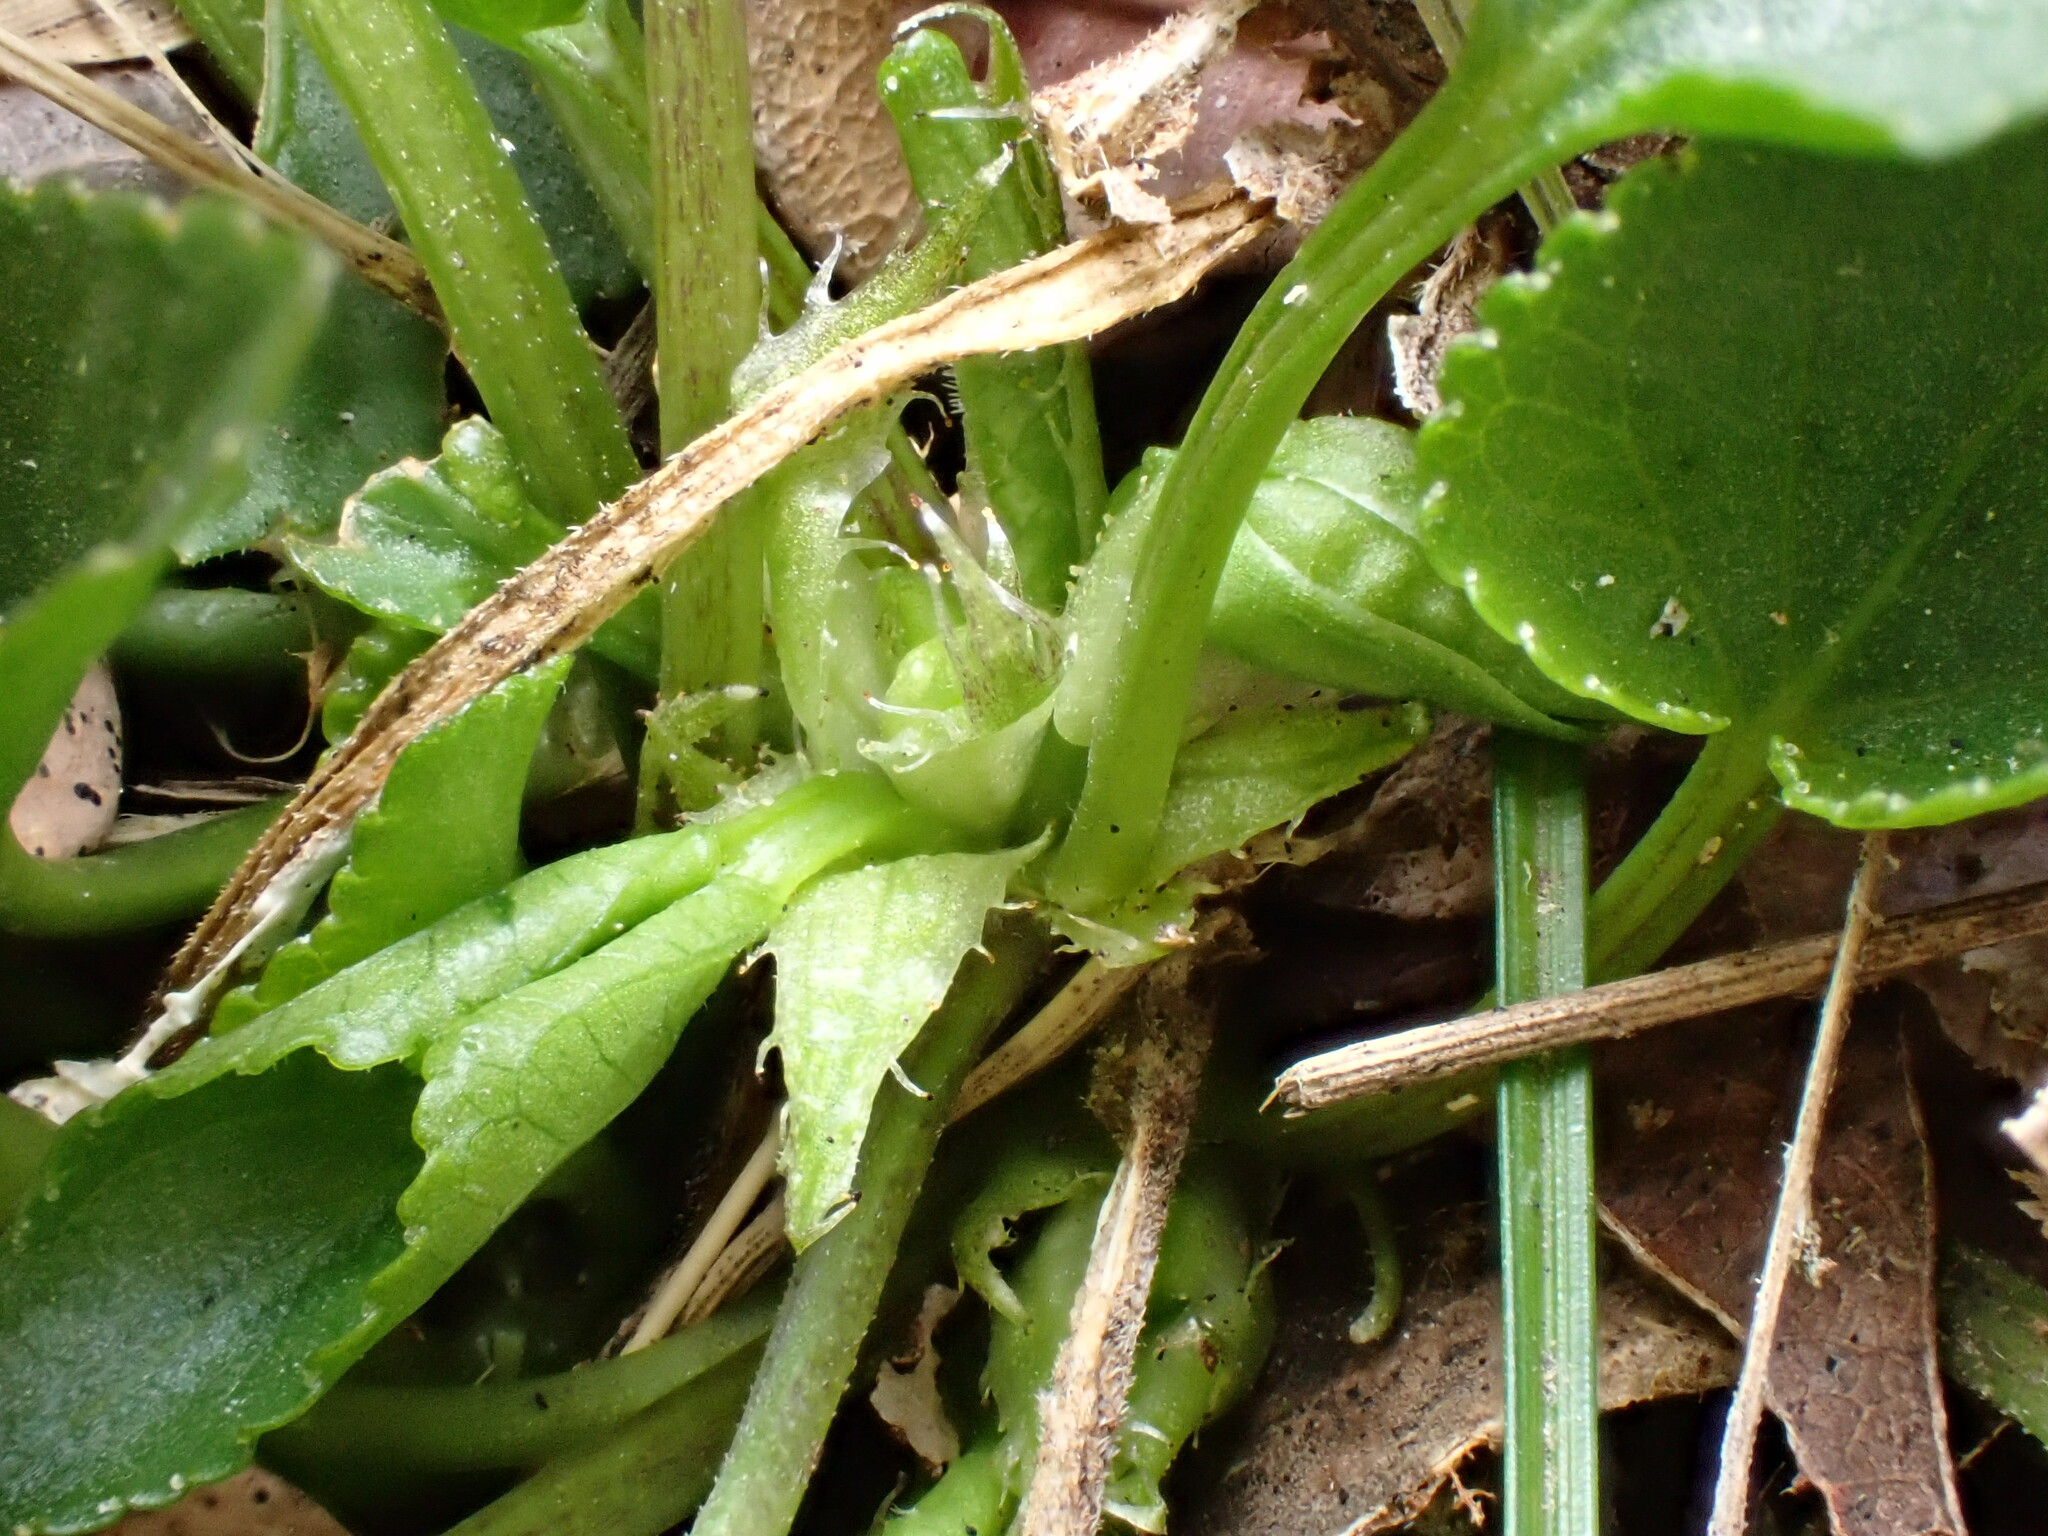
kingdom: Plantae
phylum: Tracheophyta
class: Magnoliopsida
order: Malpighiales
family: Violaceae
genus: Viola
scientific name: Viola alba
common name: White violet
